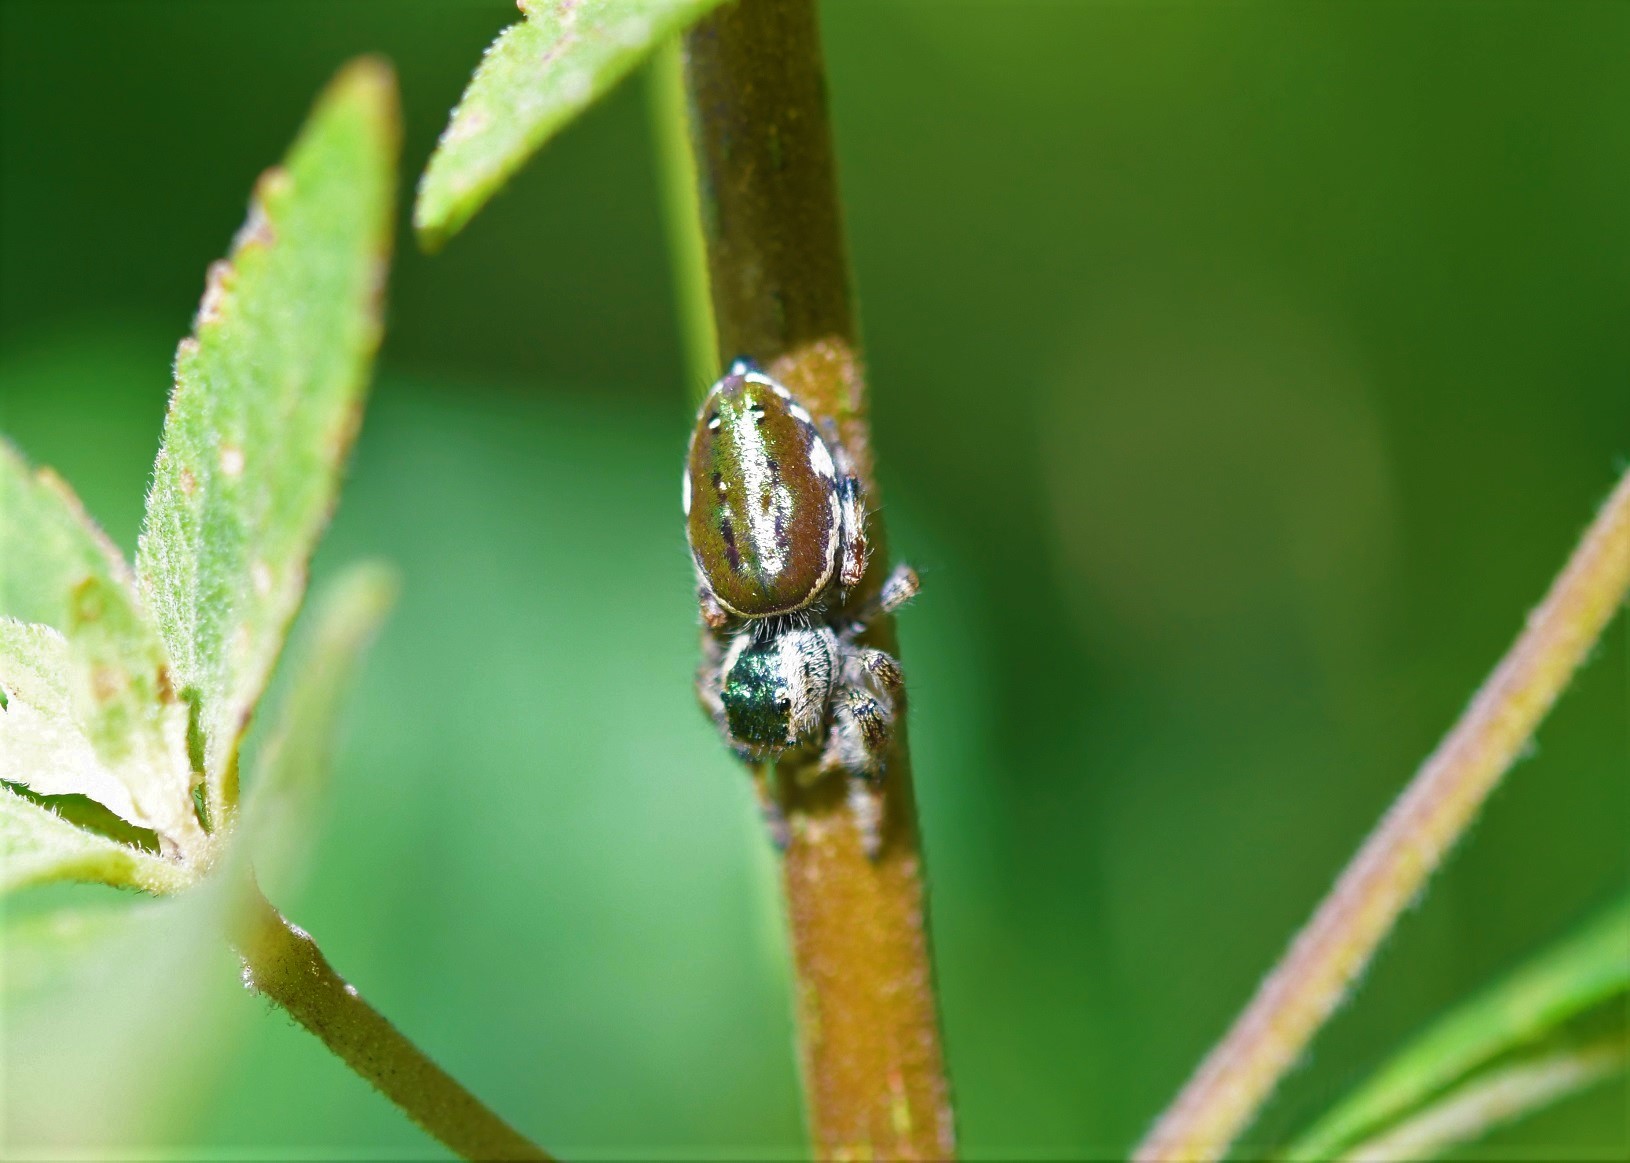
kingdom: Animalia
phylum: Arthropoda
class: Arachnida
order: Araneae
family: Salticidae
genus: Paraphidippus
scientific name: Paraphidippus aurantius
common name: Jumping spiders
